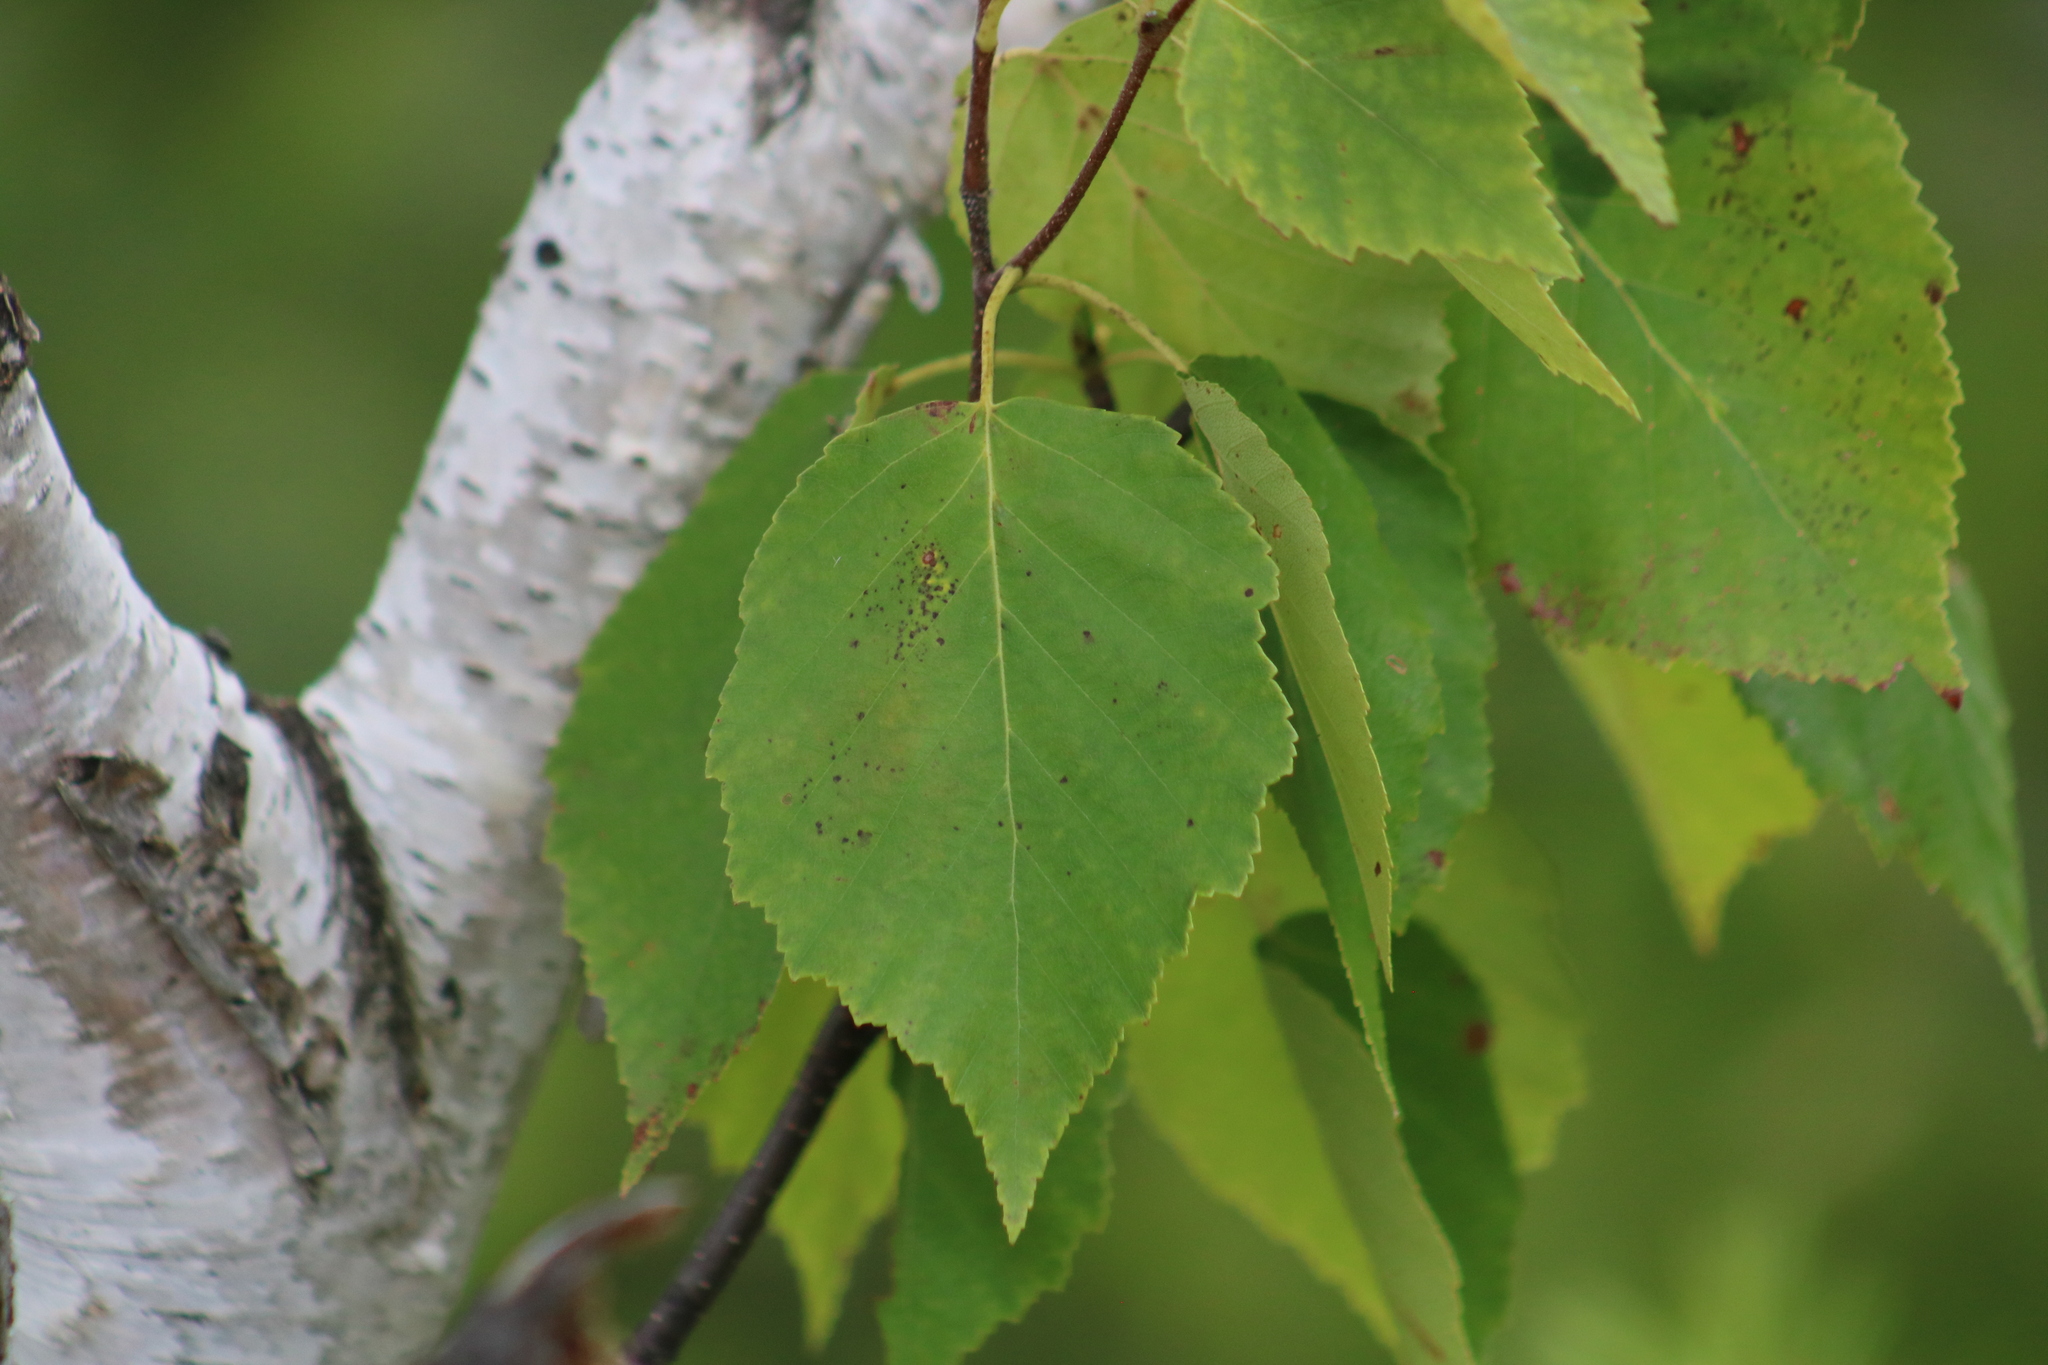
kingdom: Plantae
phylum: Tracheophyta
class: Magnoliopsida
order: Fagales
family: Betulaceae
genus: Betula
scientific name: Betula papyrifera
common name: Paper birch
